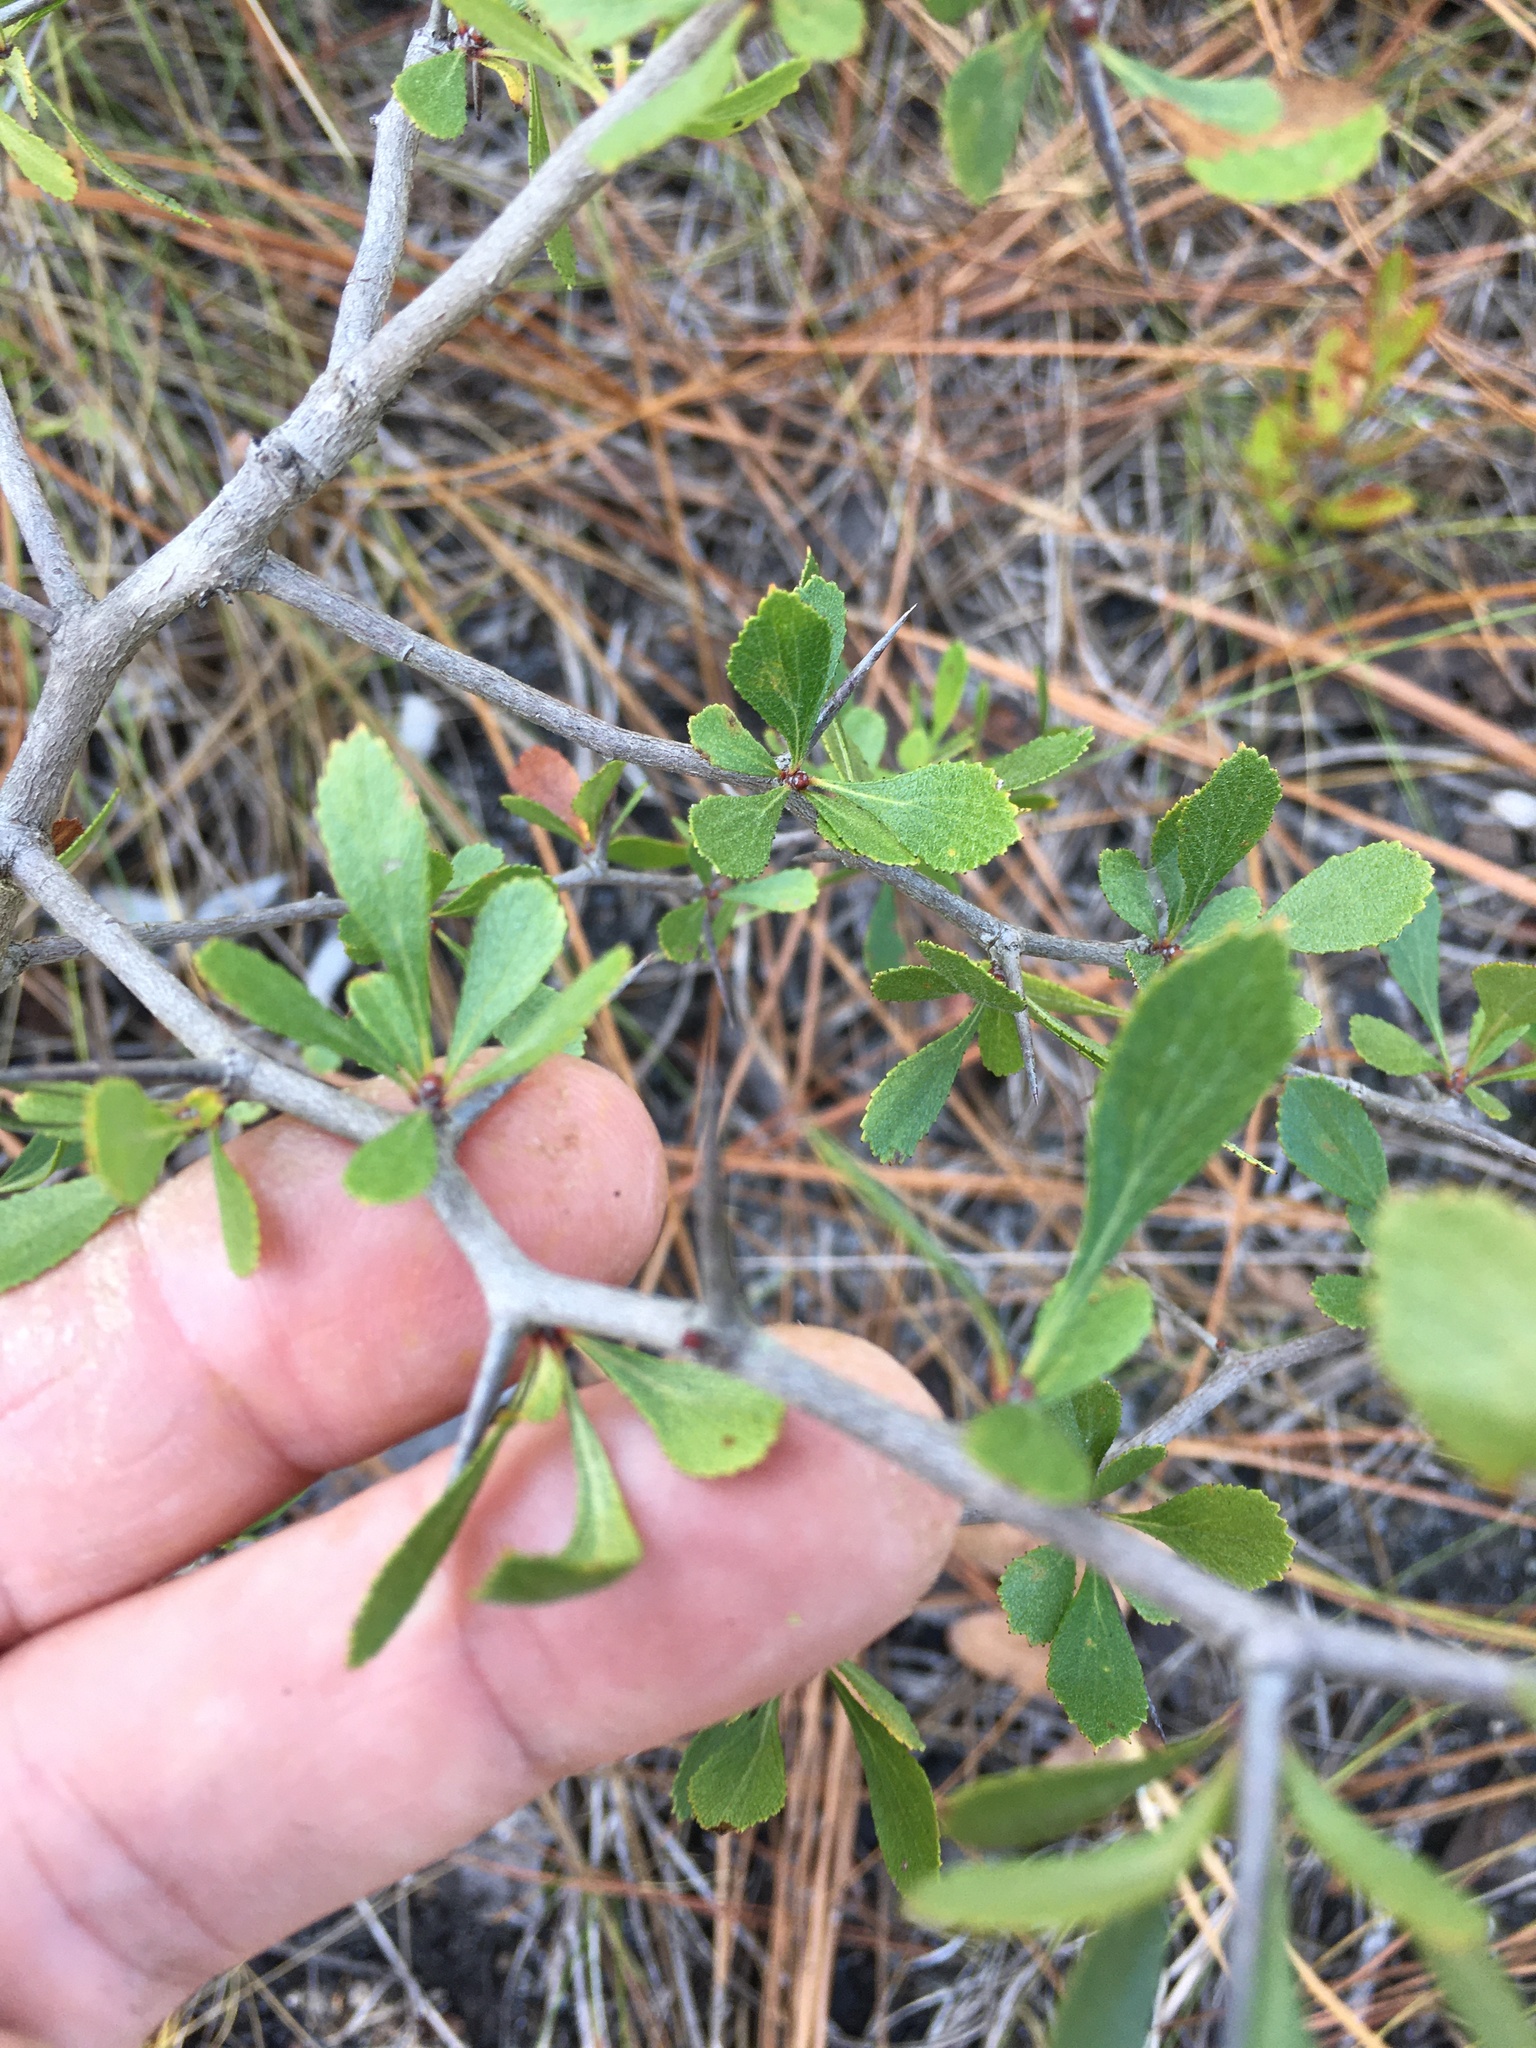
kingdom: Plantae
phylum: Tracheophyta
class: Magnoliopsida
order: Rosales
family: Rosaceae
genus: Crataegus
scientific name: Crataegus munda
